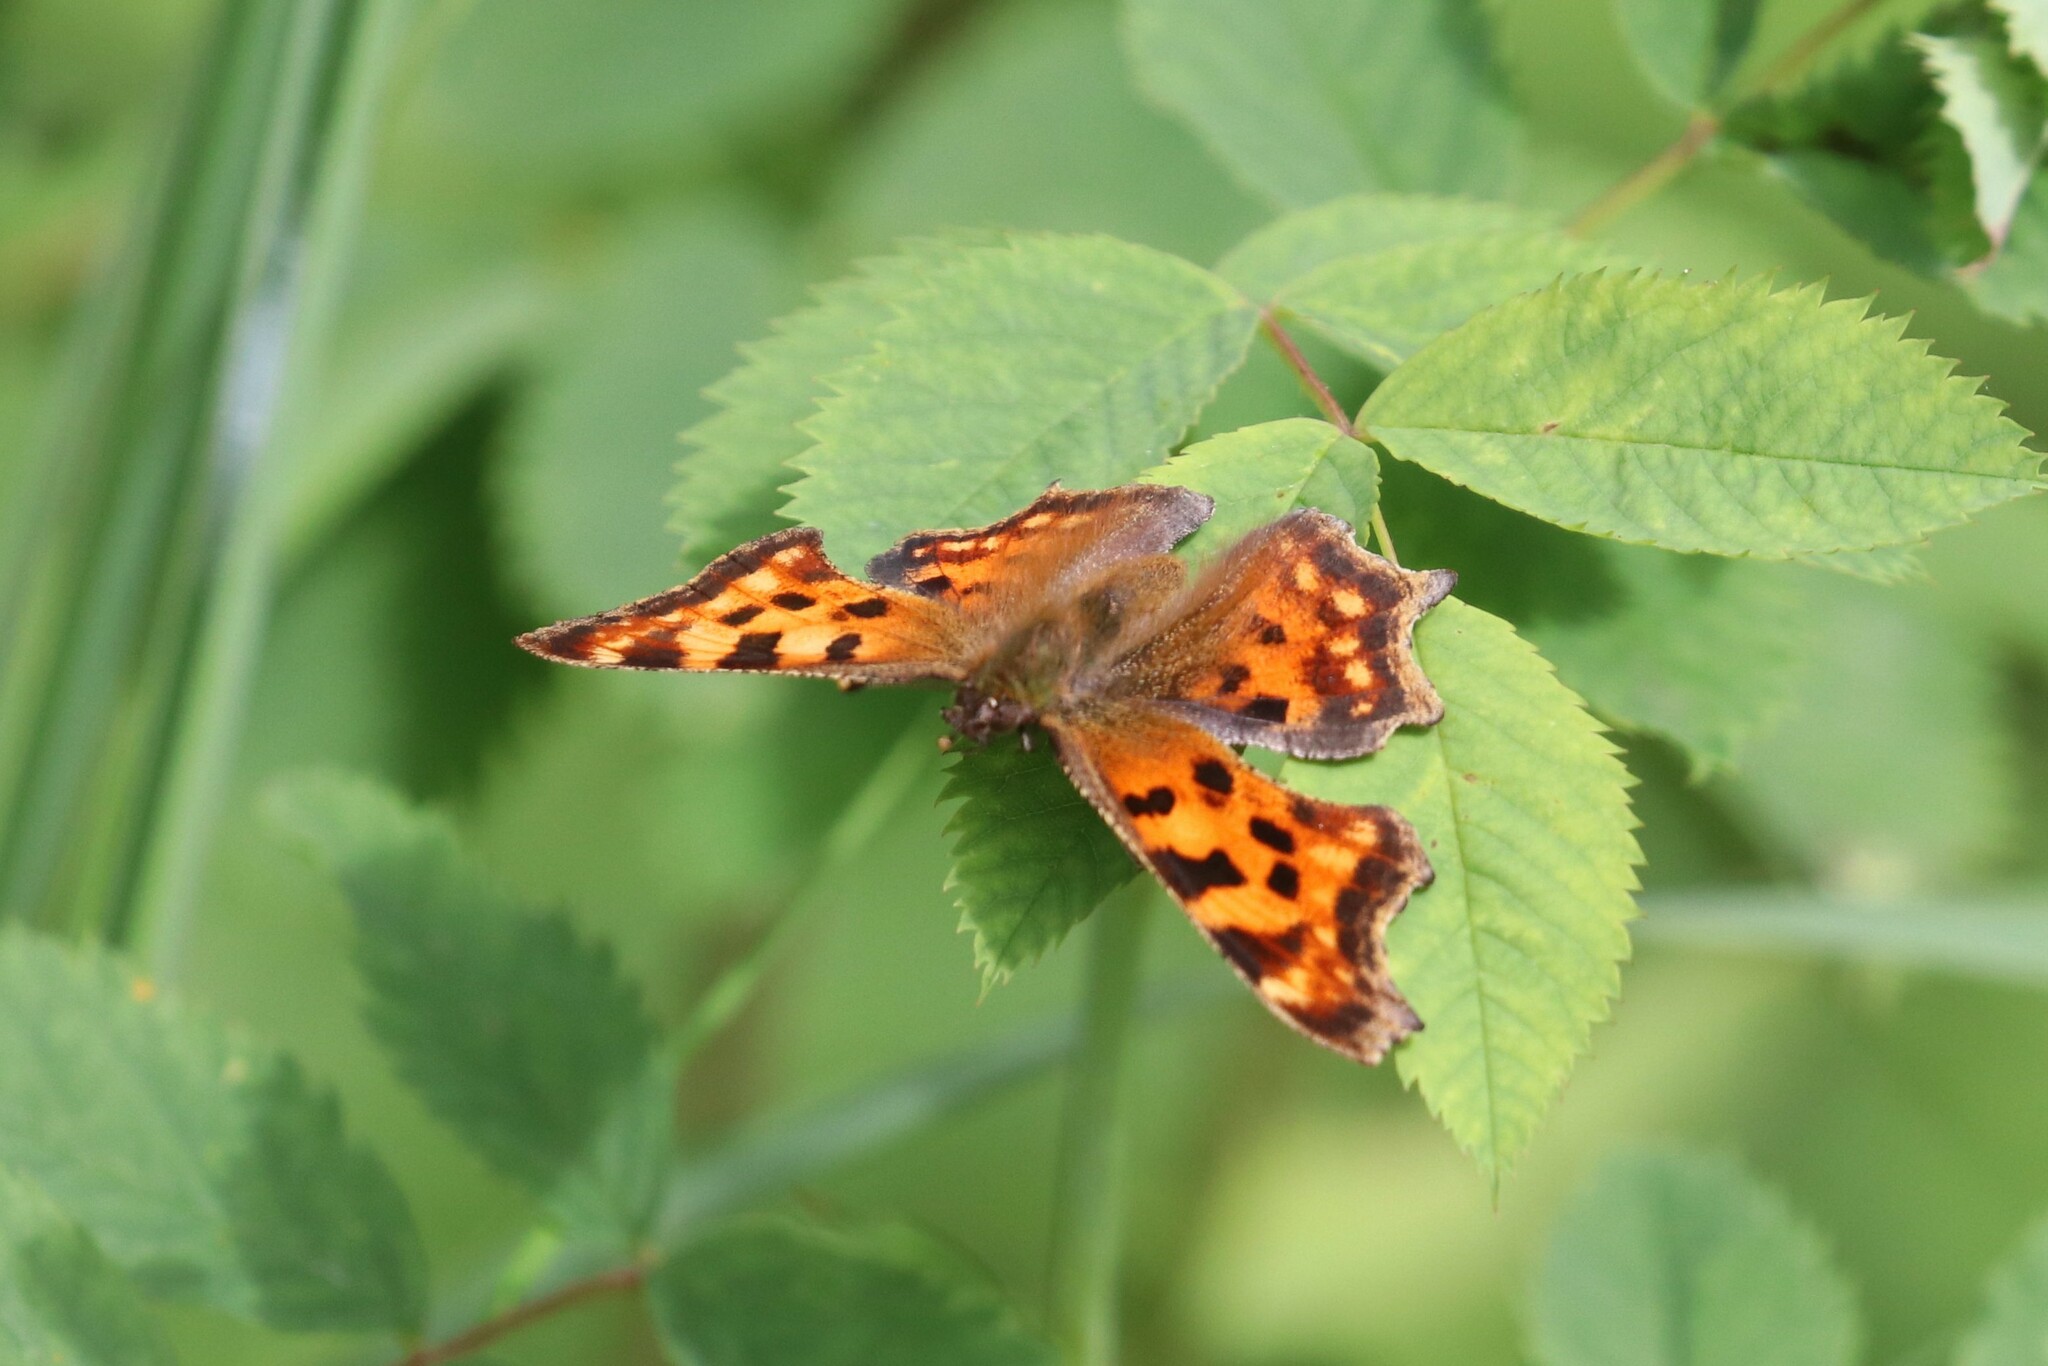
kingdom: Animalia
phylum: Arthropoda
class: Insecta
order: Lepidoptera
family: Nymphalidae
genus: Polygonia
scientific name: Polygonia c-album
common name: Comma
